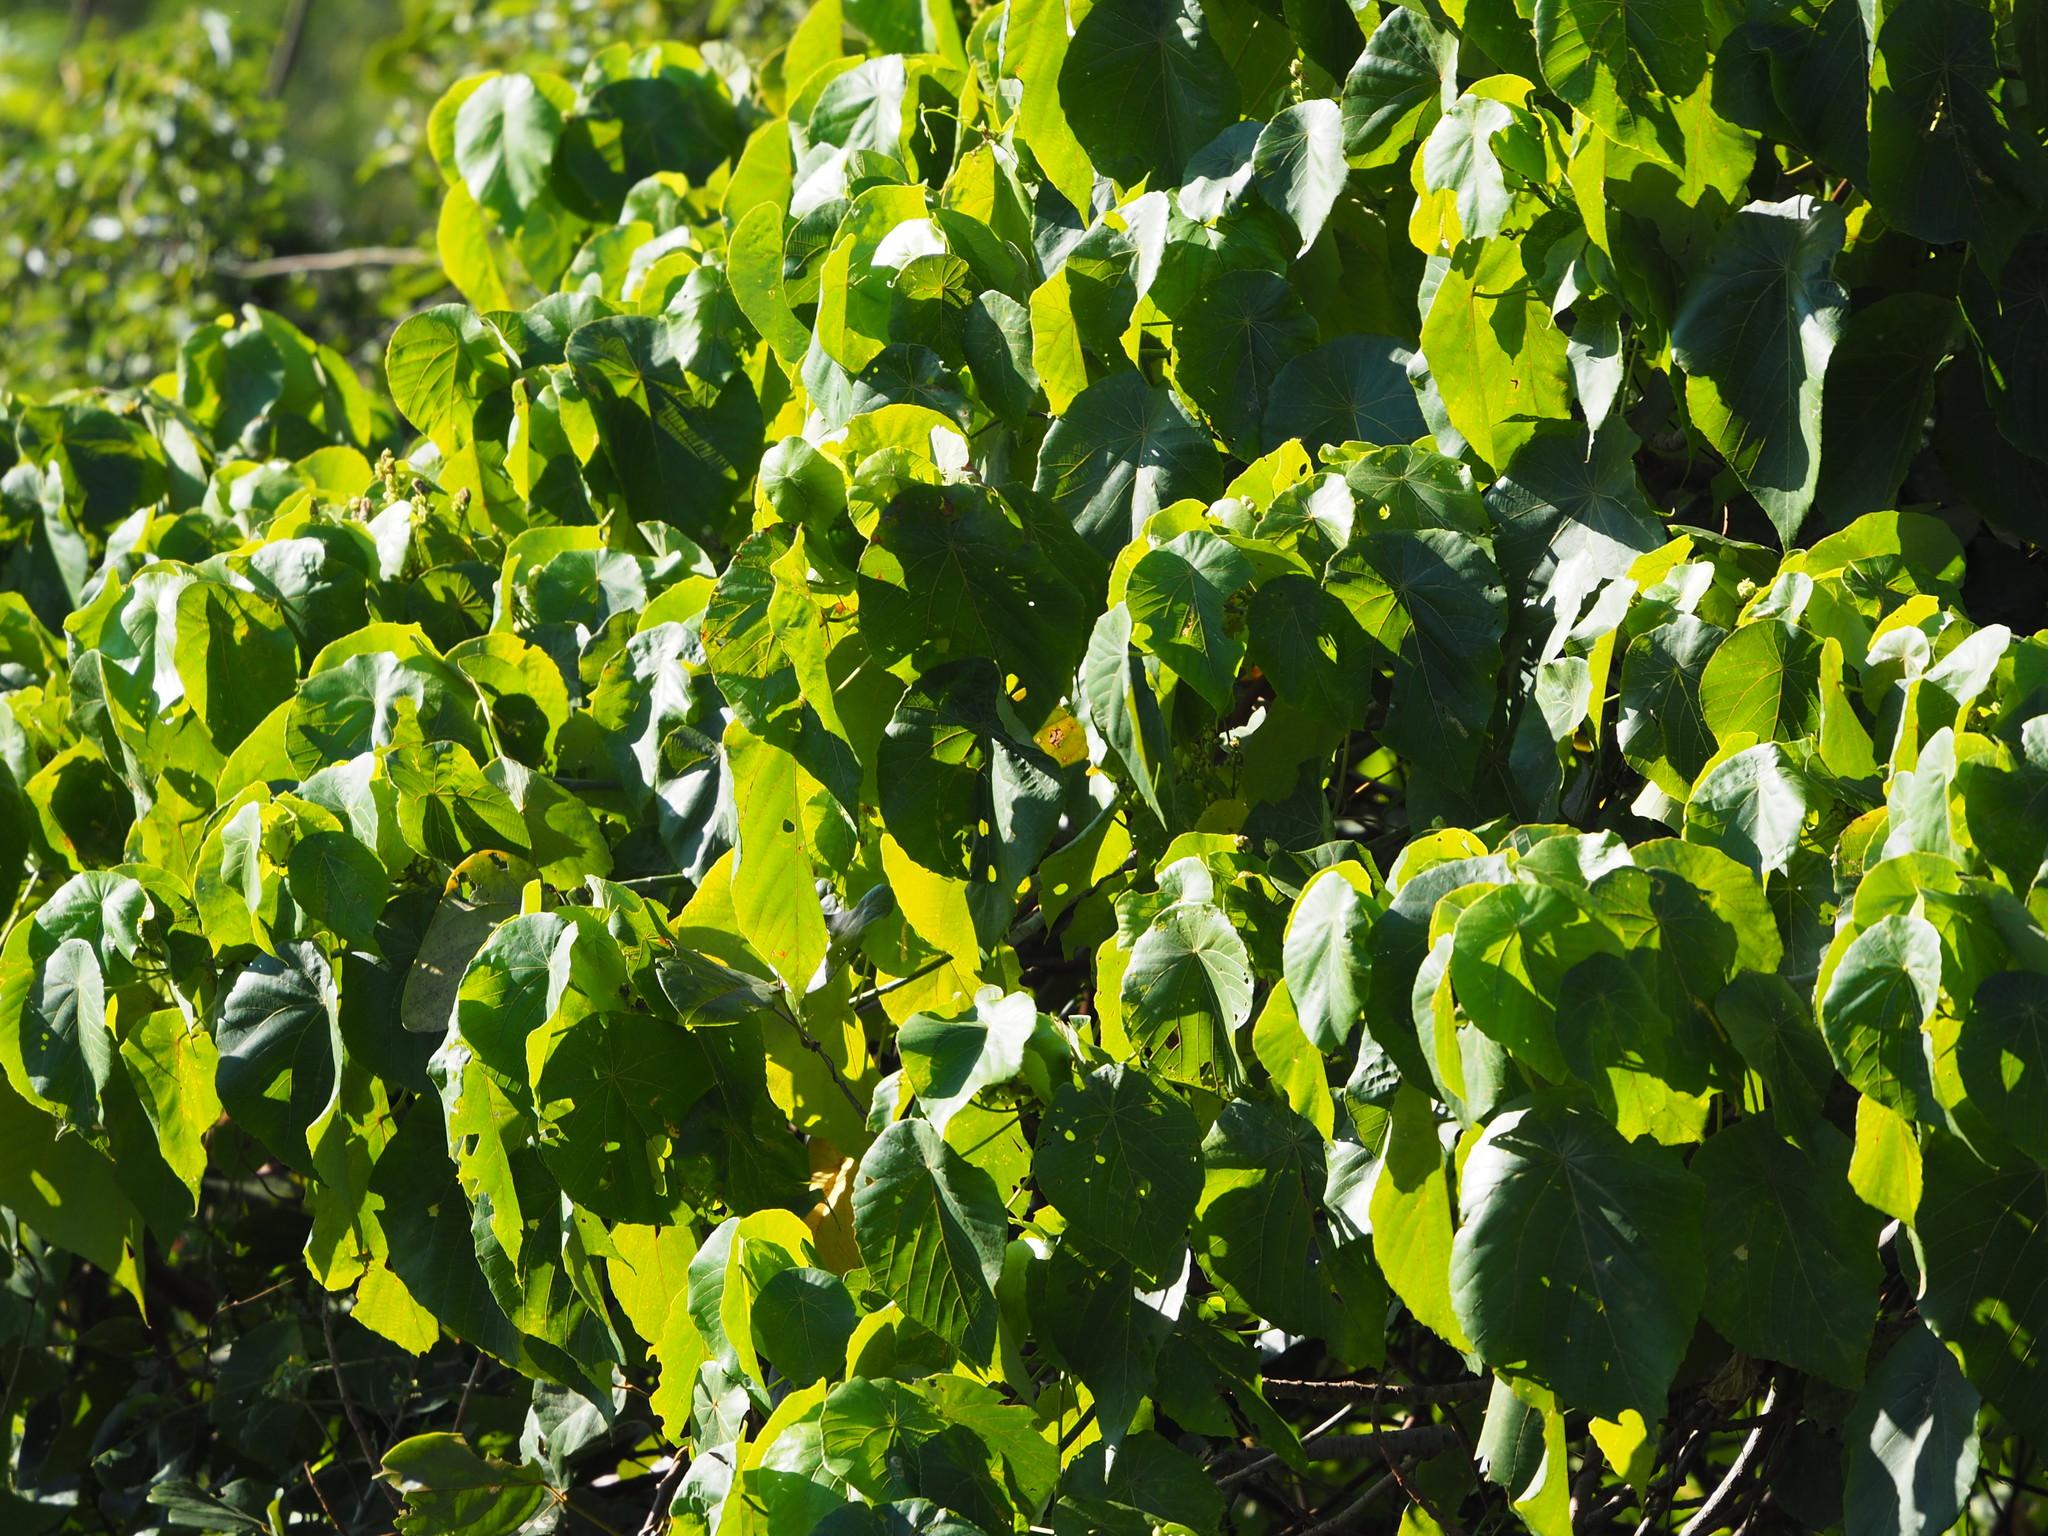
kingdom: Plantae
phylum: Tracheophyta
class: Magnoliopsida
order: Malpighiales
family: Euphorbiaceae
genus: Macaranga
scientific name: Macaranga tanarius
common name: Parasol leaf tree
